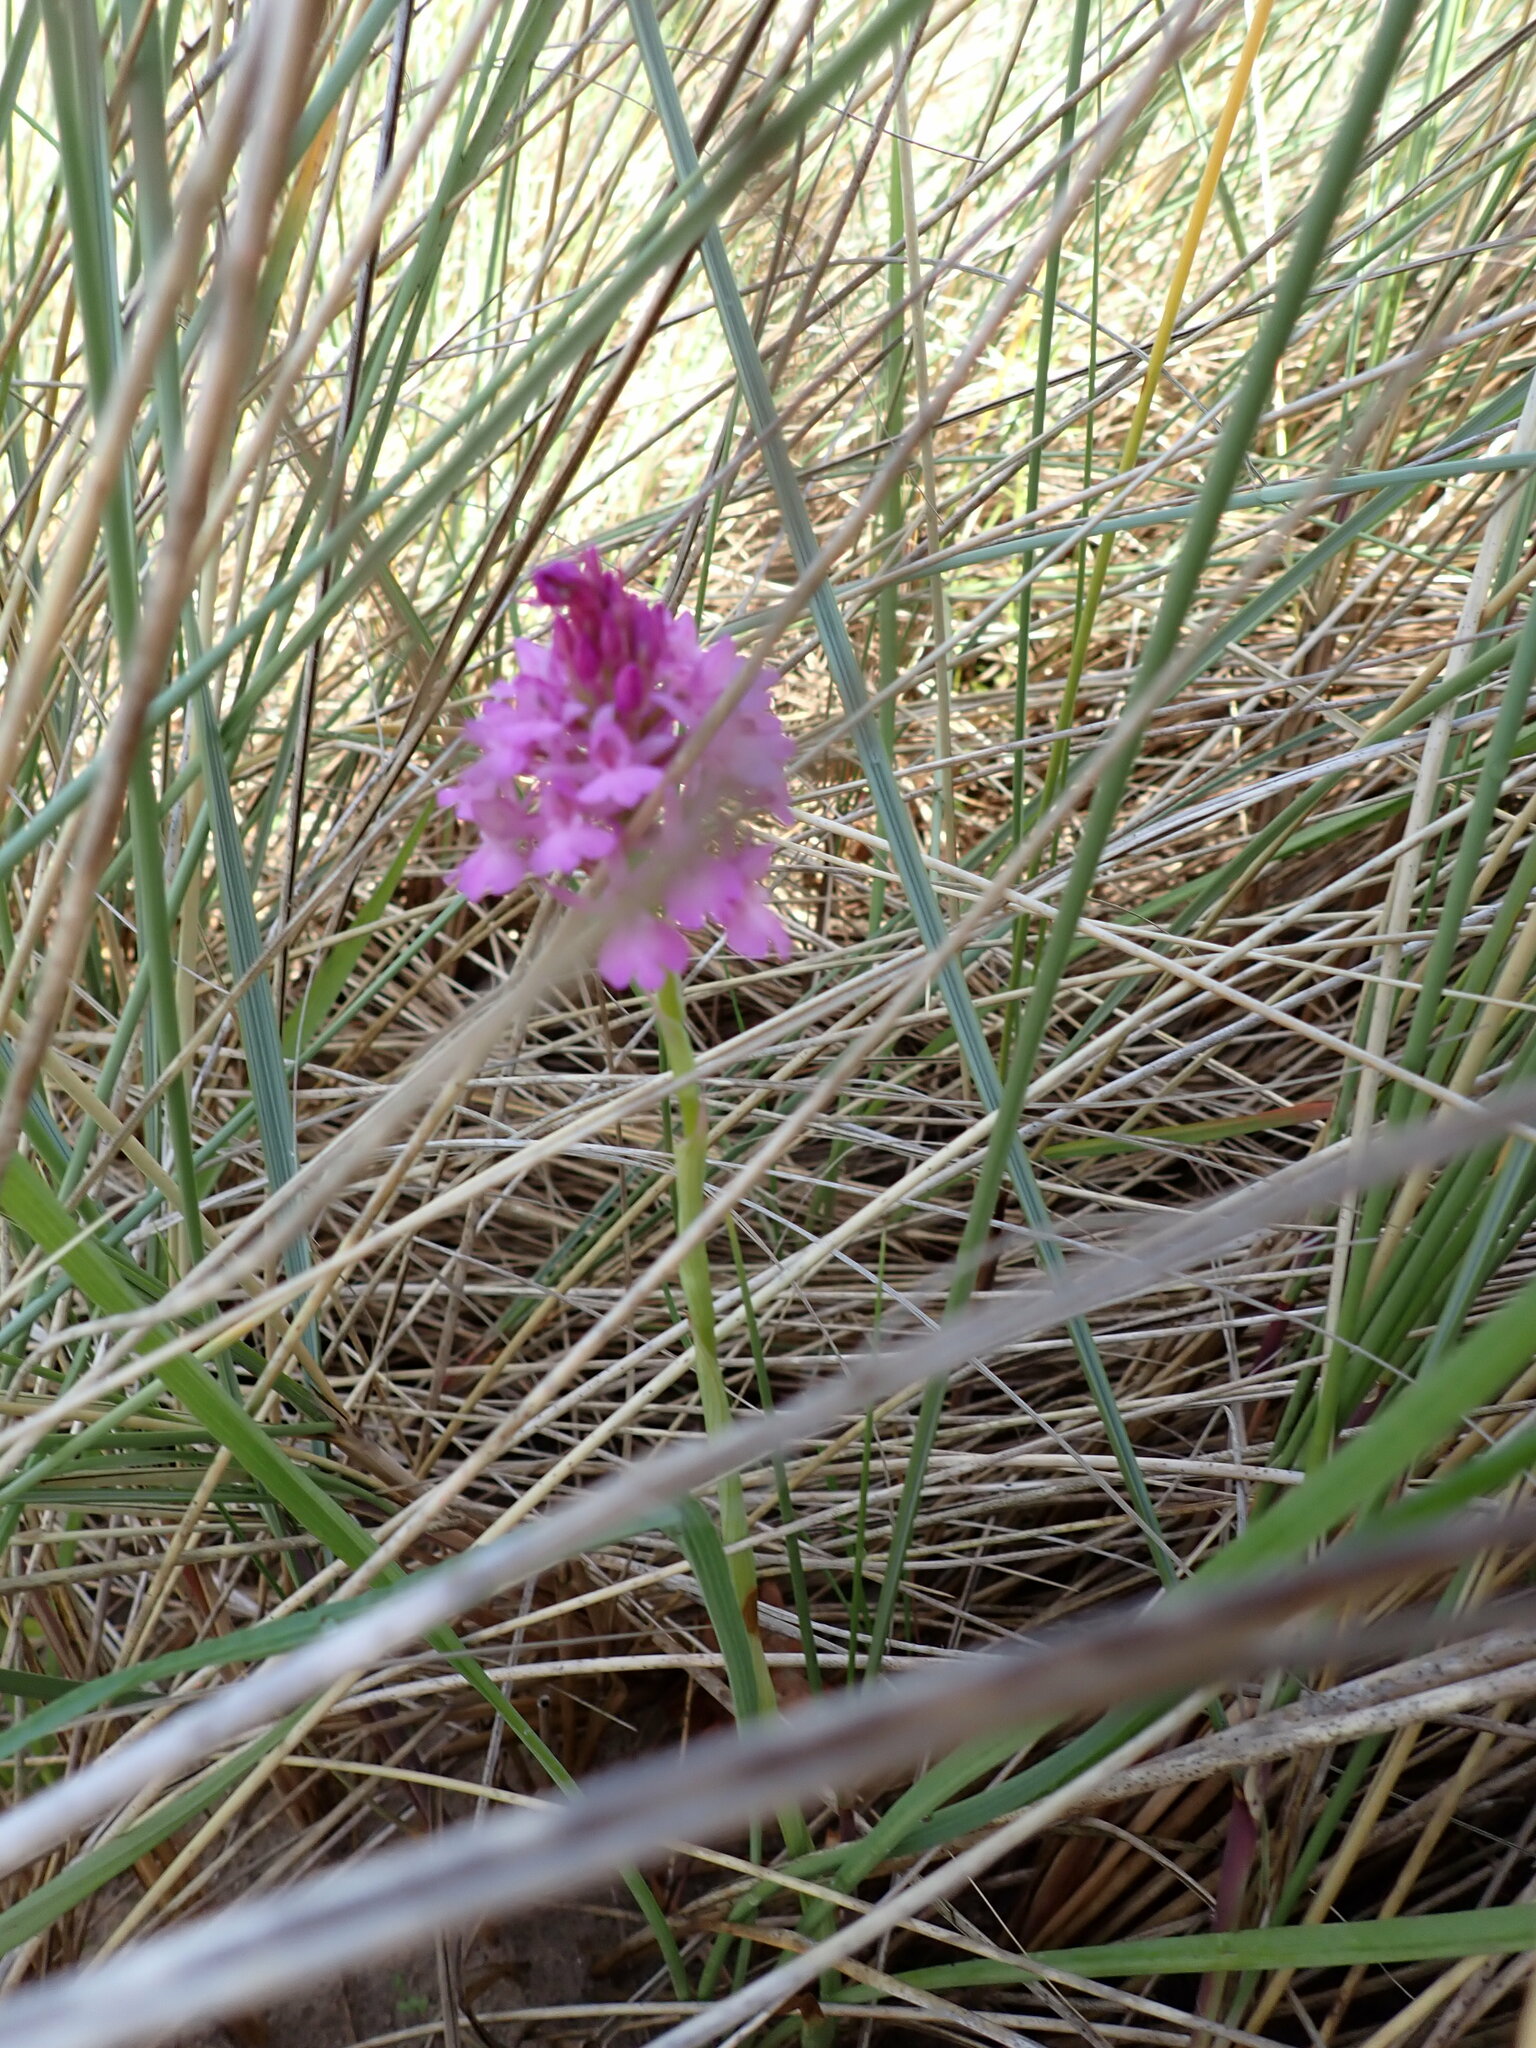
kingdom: Plantae
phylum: Tracheophyta
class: Liliopsida
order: Asparagales
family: Orchidaceae
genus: Anacamptis
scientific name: Anacamptis pyramidalis
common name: Pyramidal orchid
